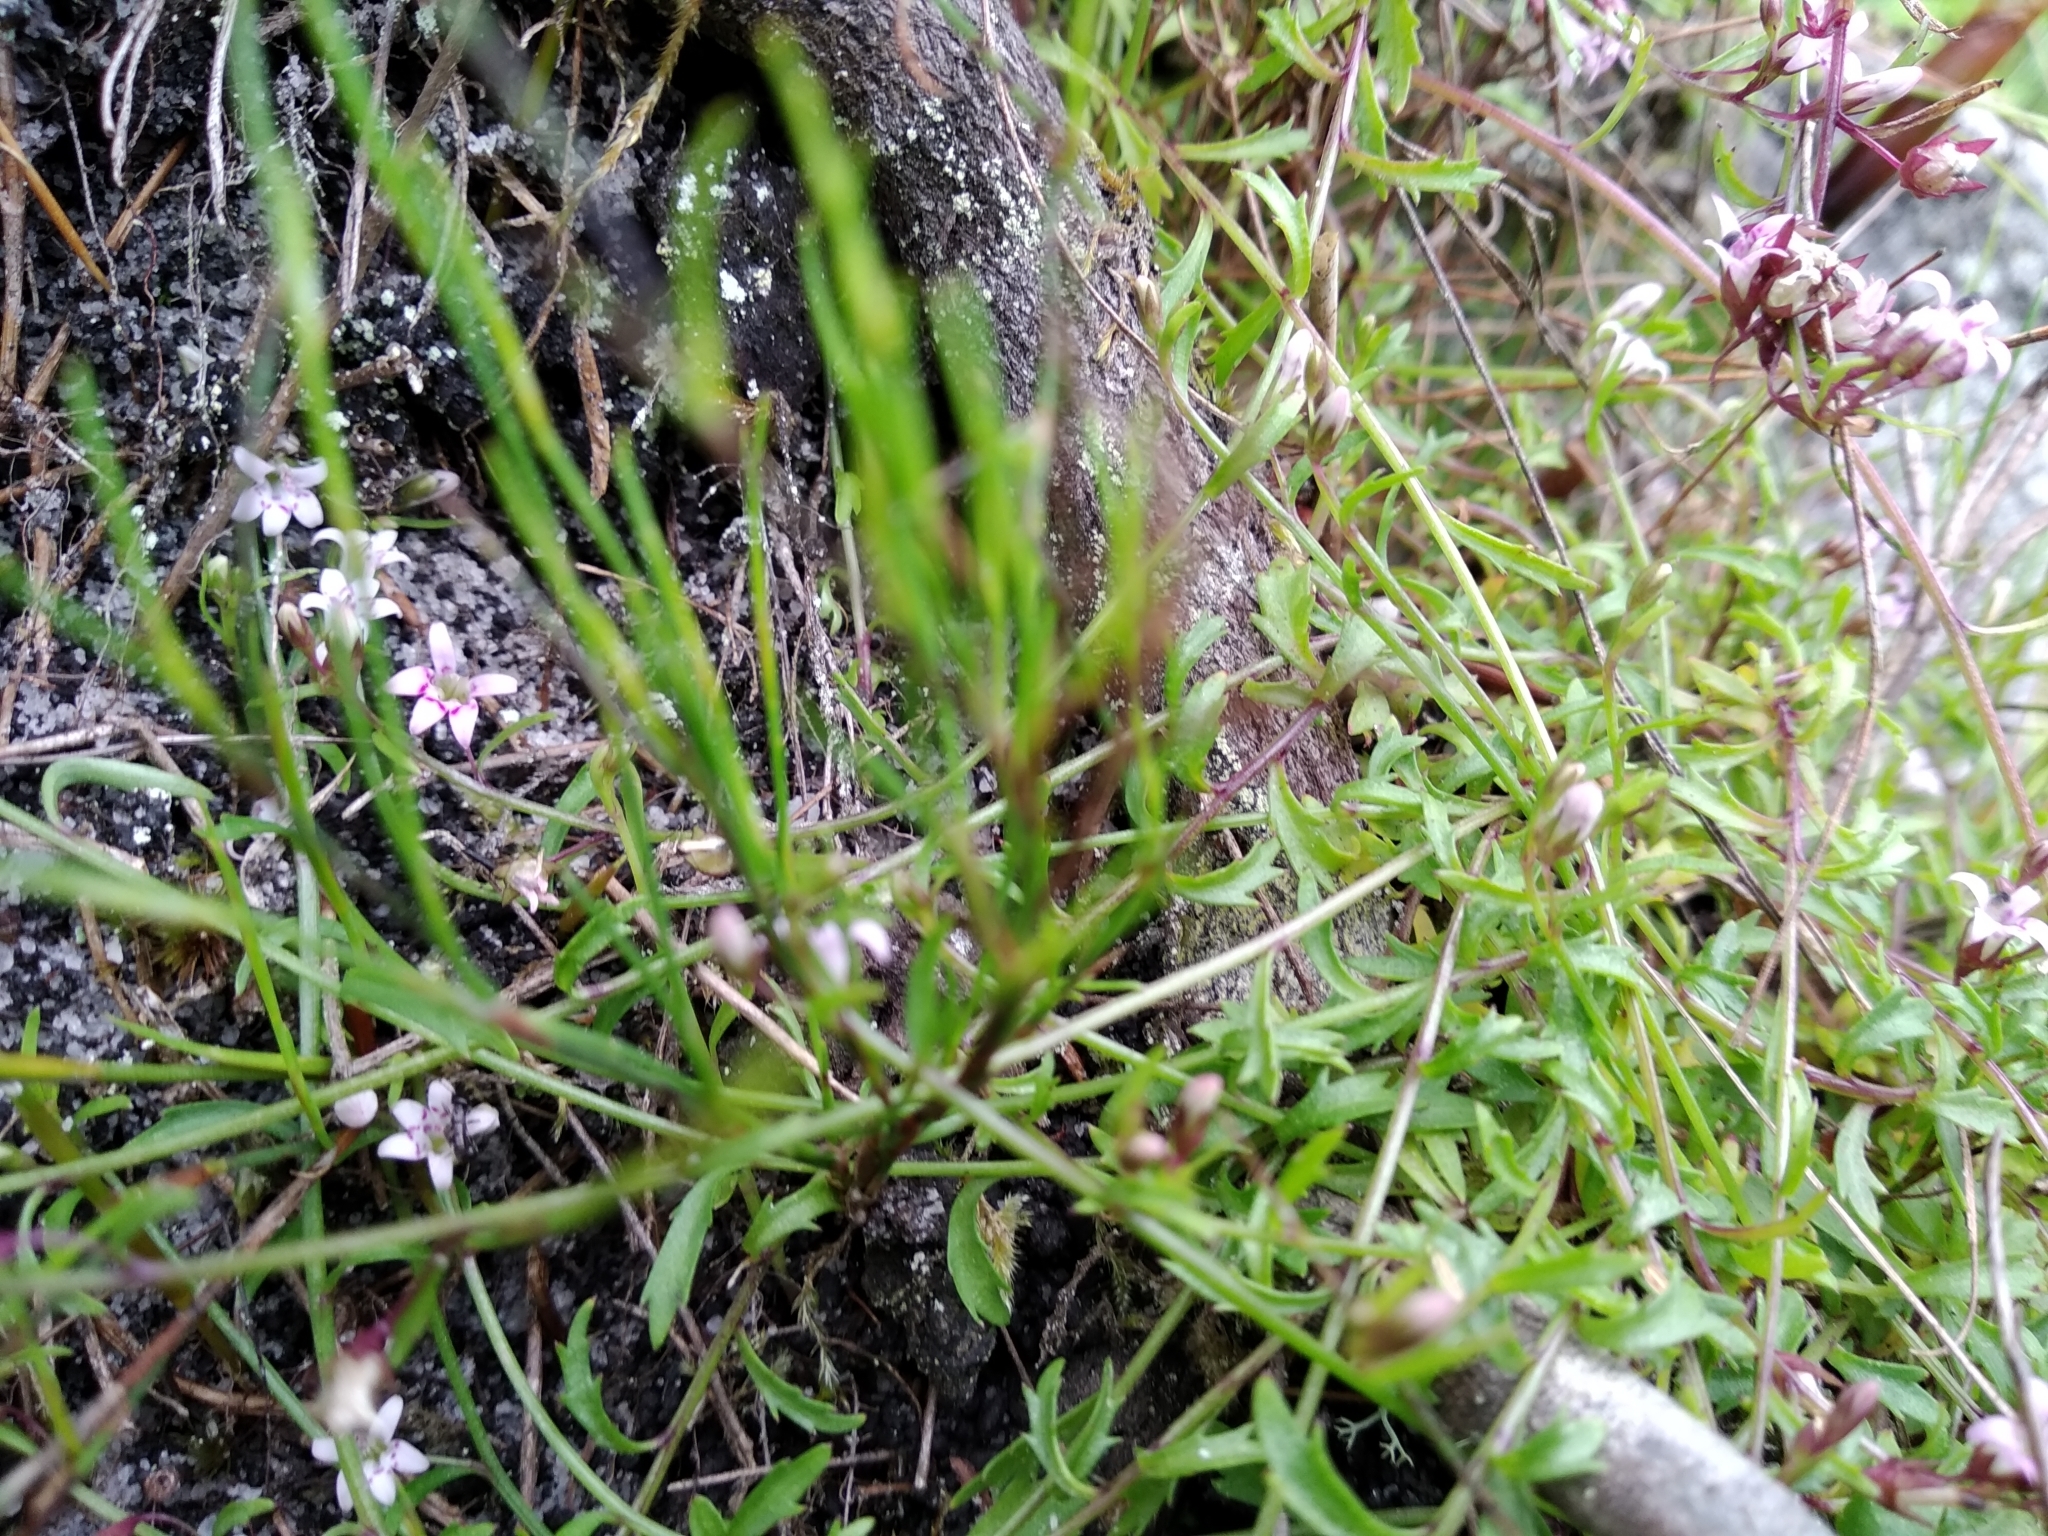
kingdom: Plantae
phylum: Tracheophyta
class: Magnoliopsida
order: Asterales
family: Campanulaceae
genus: Lobelia
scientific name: Lobelia eckloniana
